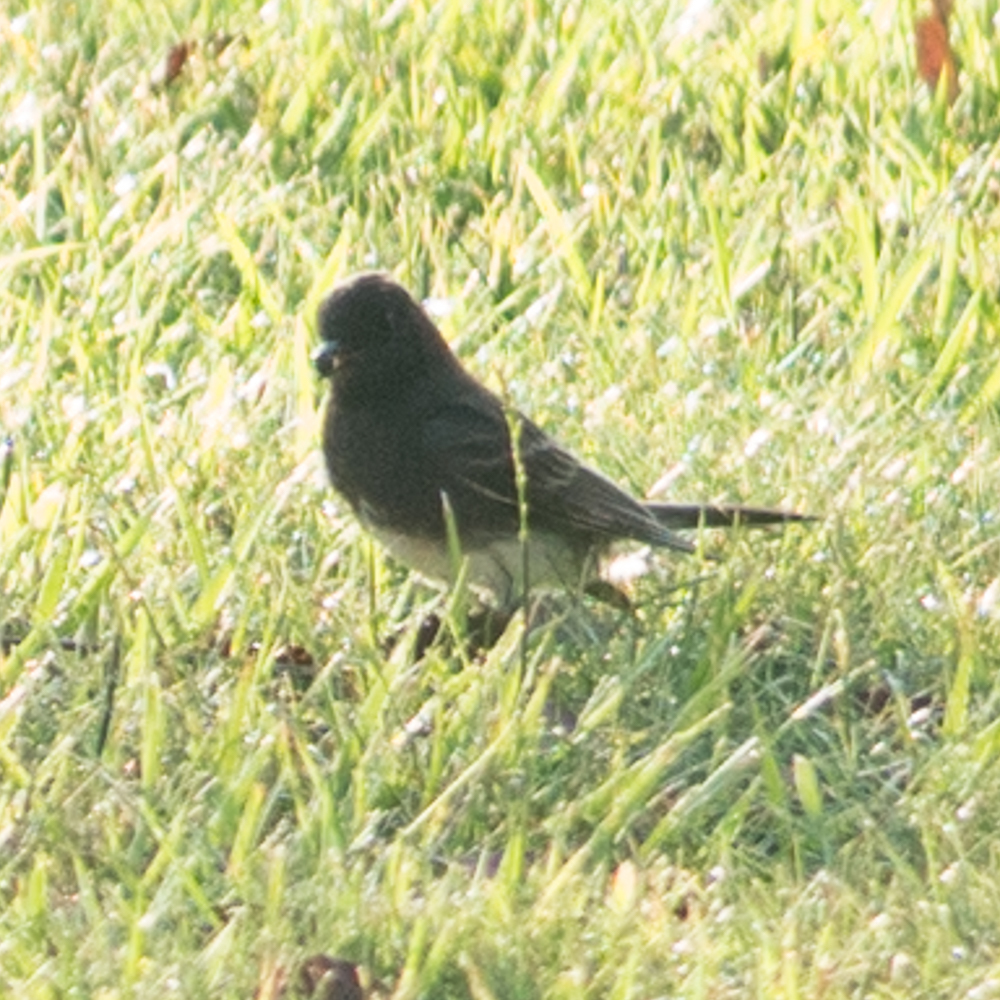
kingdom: Animalia
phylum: Chordata
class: Aves
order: Passeriformes
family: Tyrannidae
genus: Sayornis
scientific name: Sayornis nigricans
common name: Black phoebe
